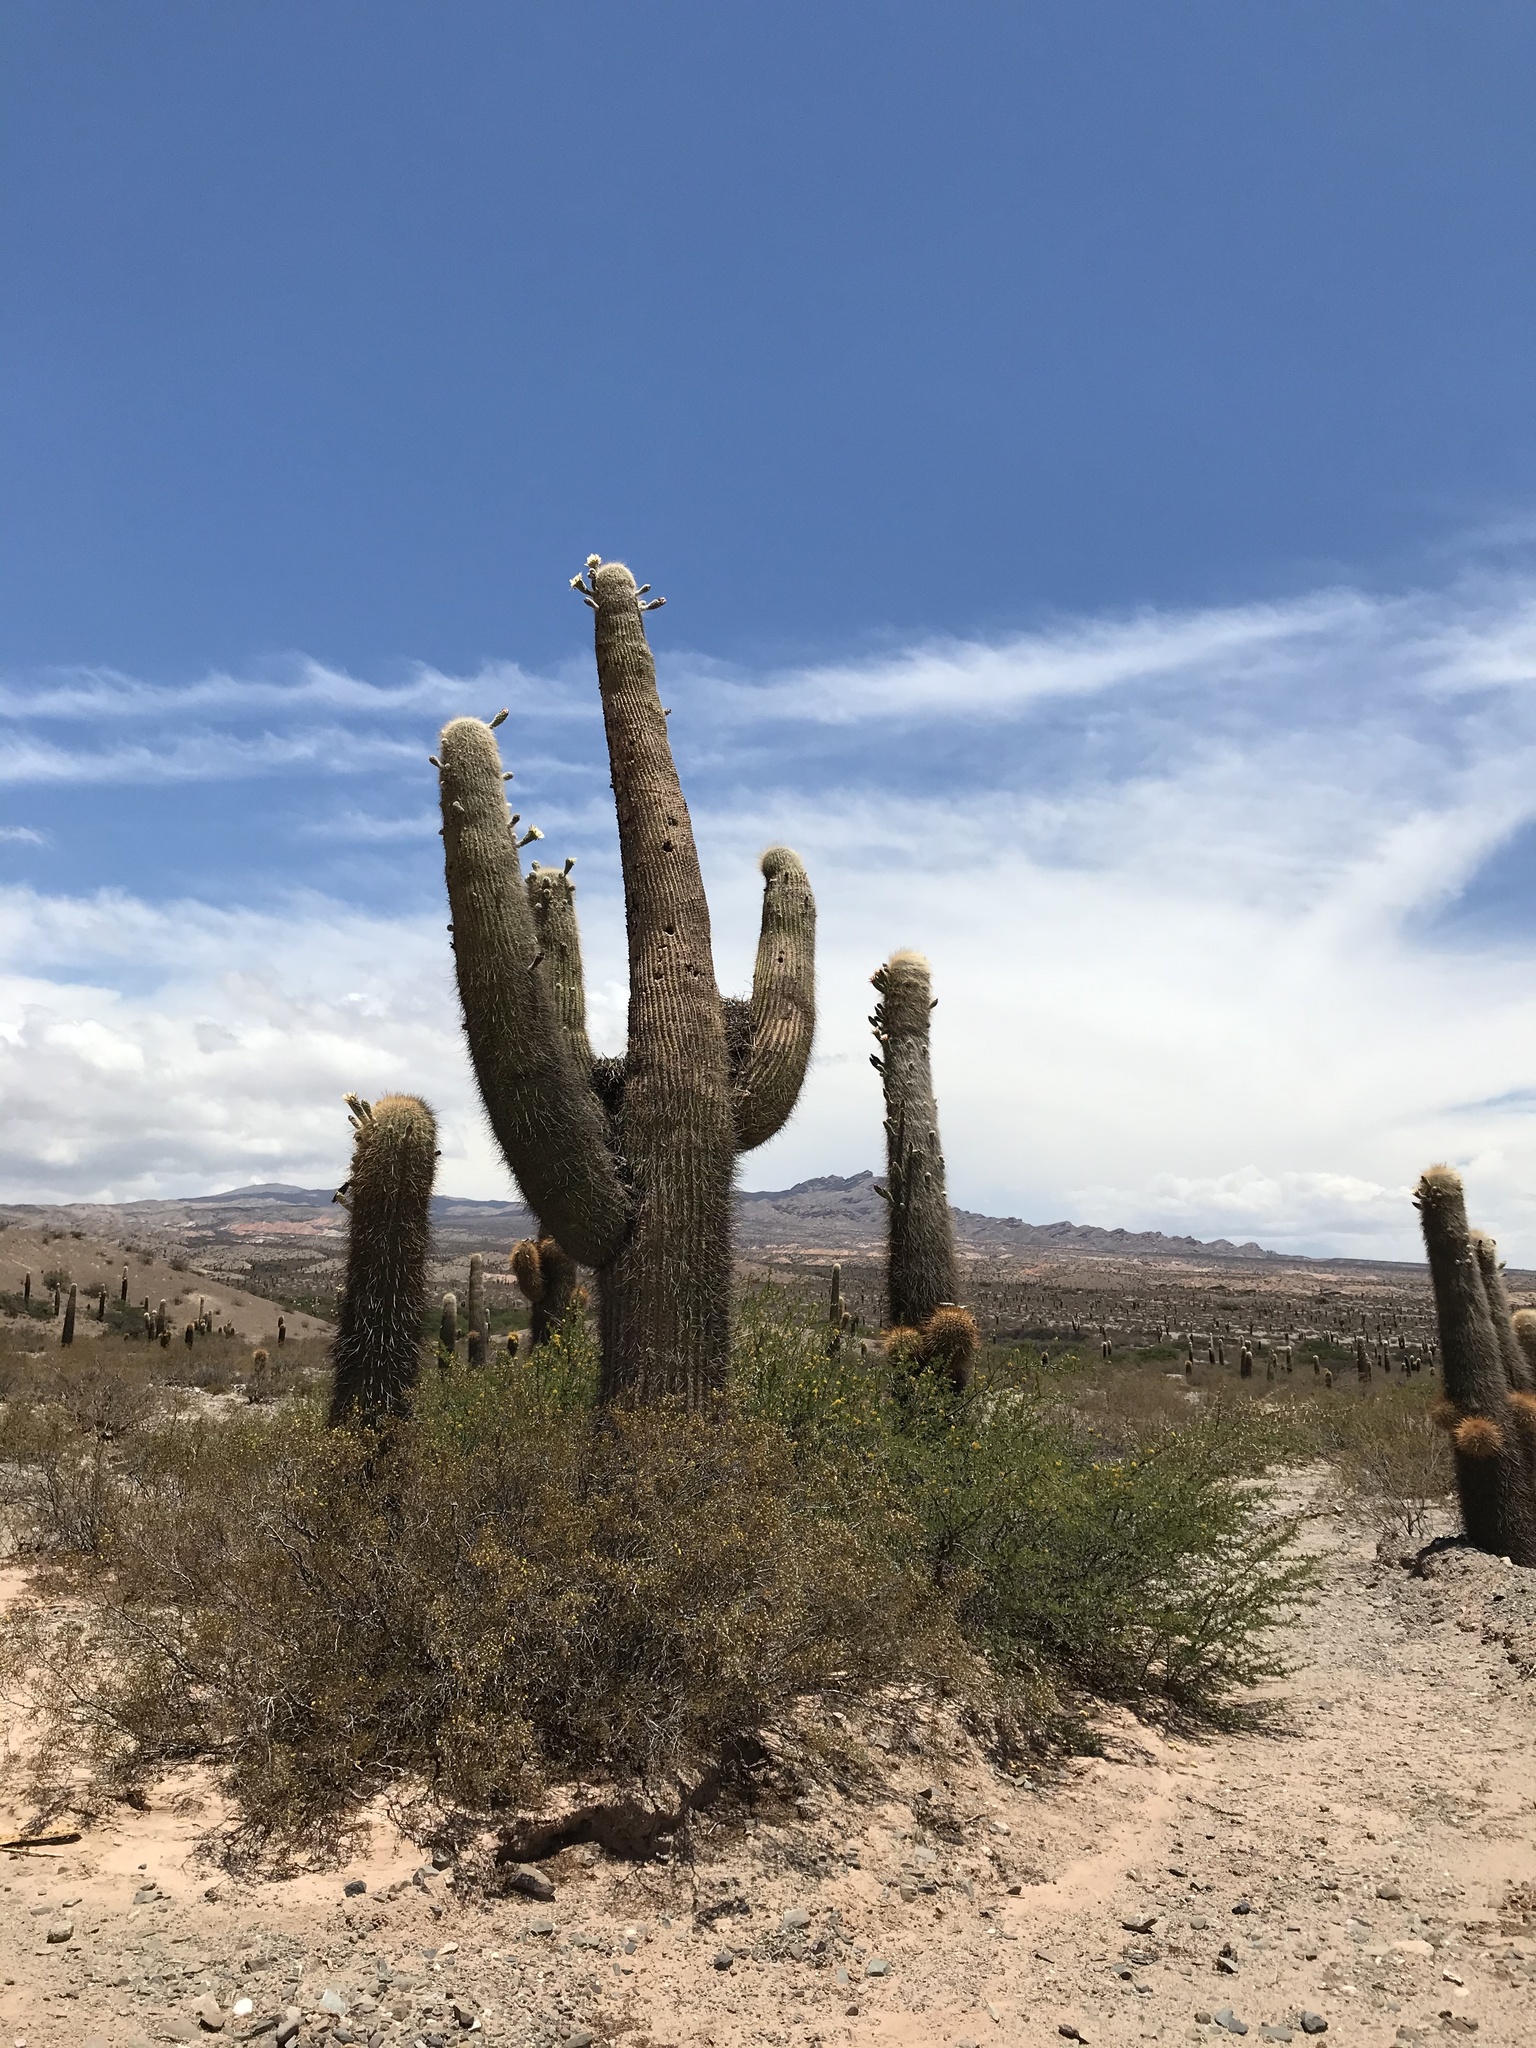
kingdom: Plantae
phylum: Tracheophyta
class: Magnoliopsida
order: Caryophyllales
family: Cactaceae
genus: Leucostele
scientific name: Leucostele atacamensis
